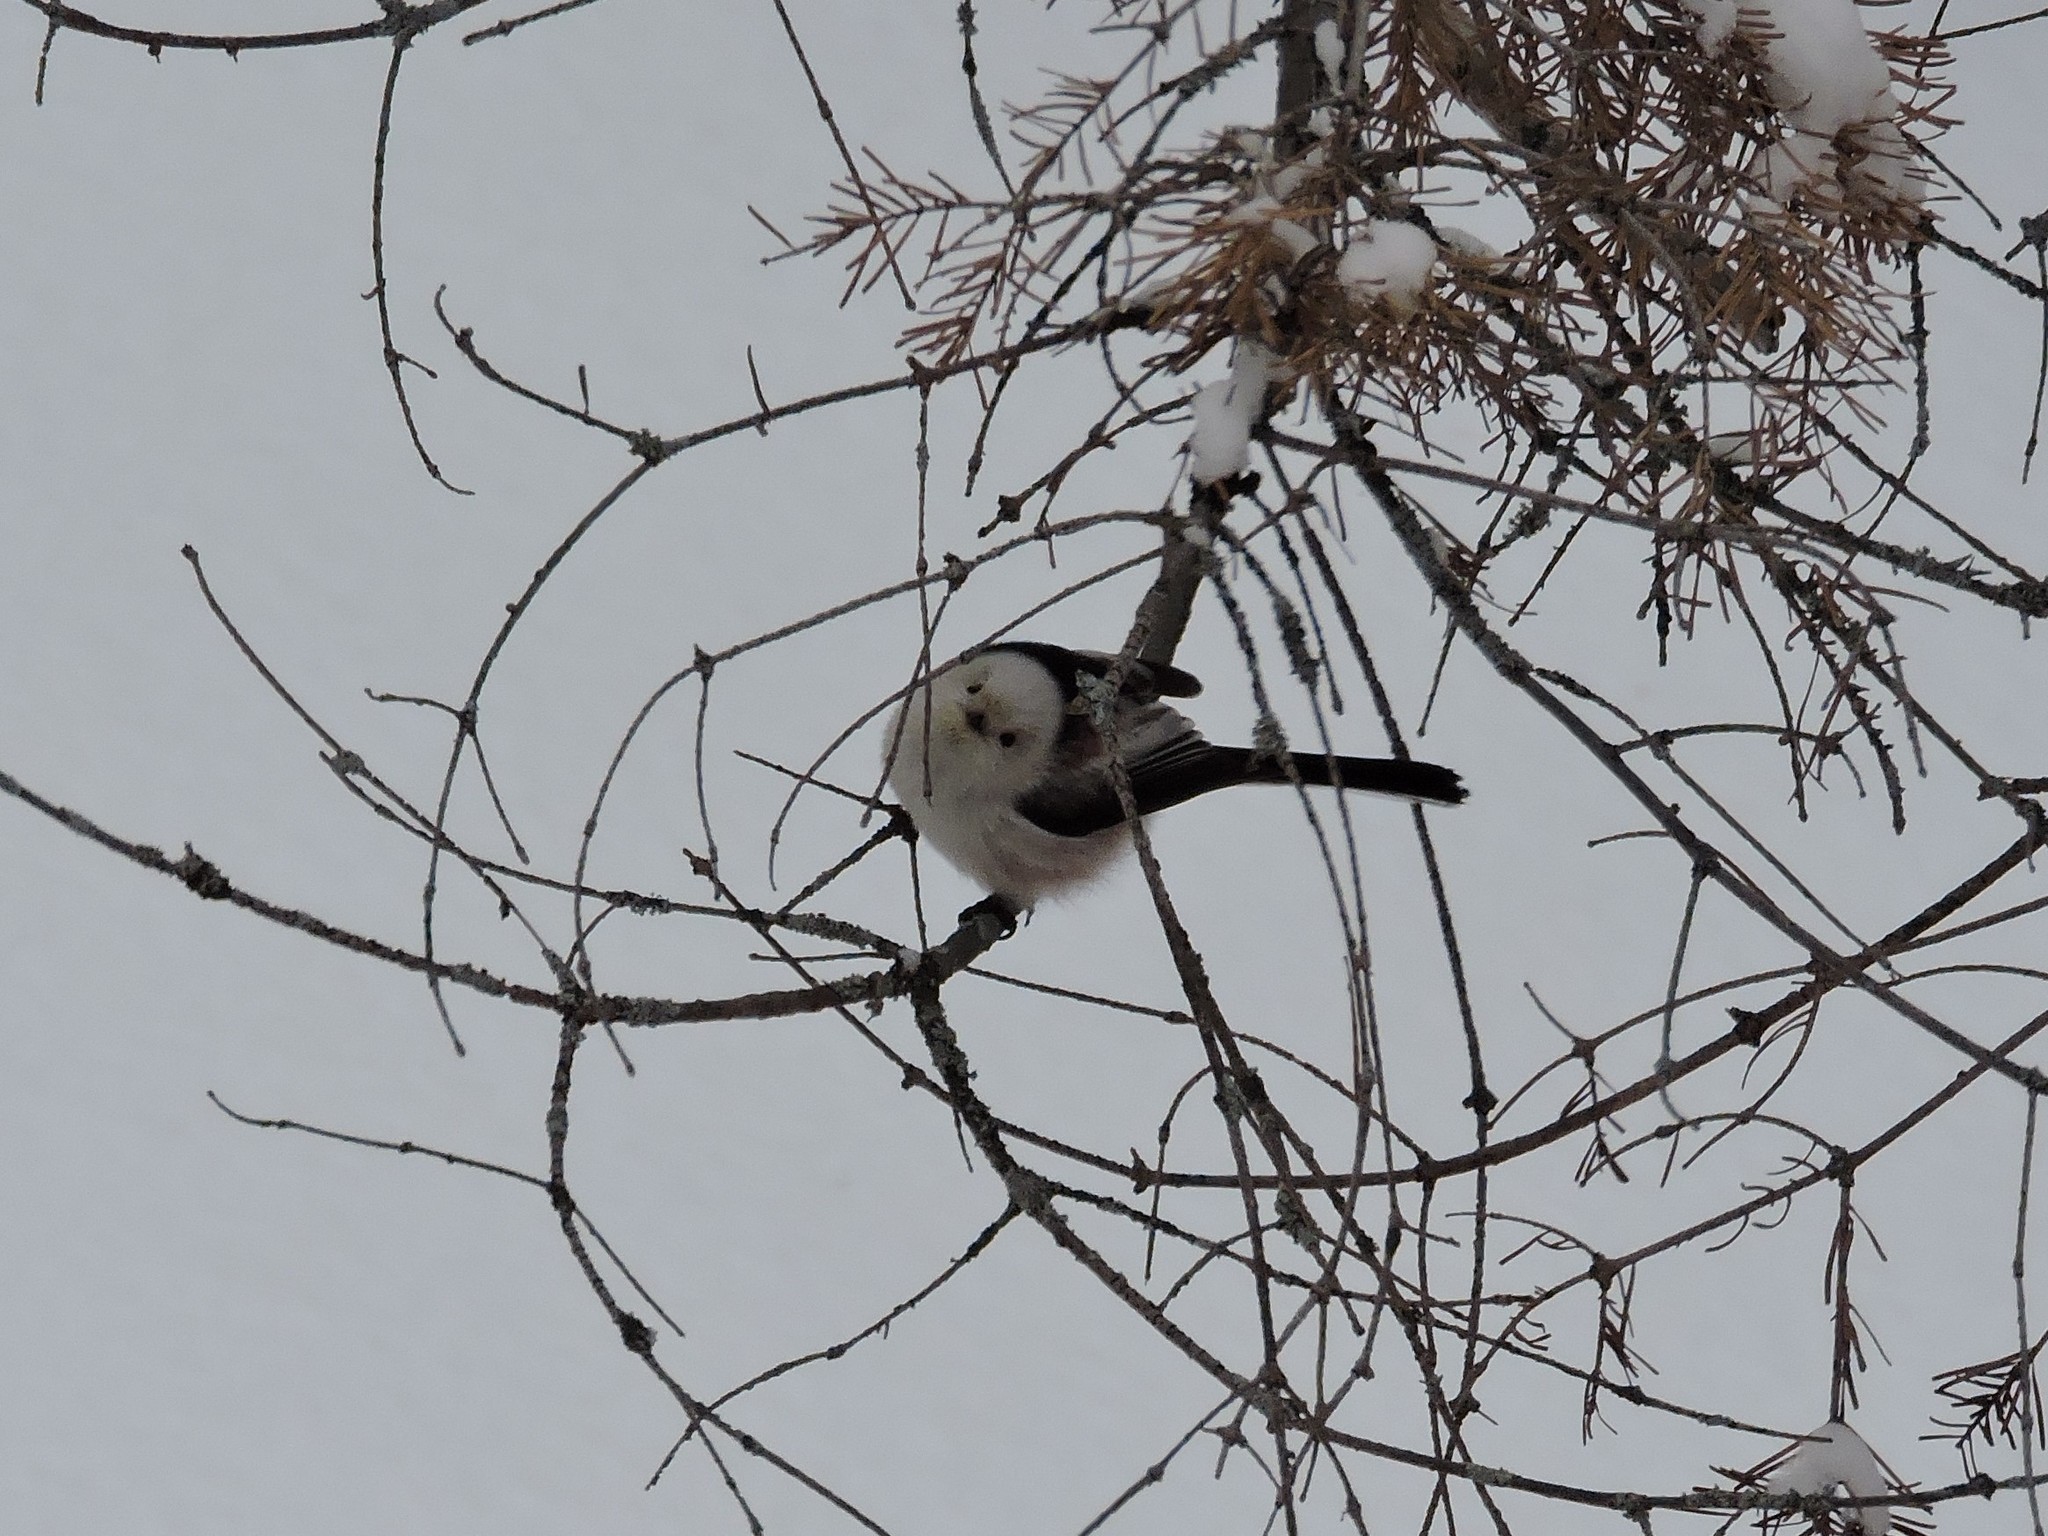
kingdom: Animalia
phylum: Chordata
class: Aves
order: Passeriformes
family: Aegithalidae
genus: Aegithalos
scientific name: Aegithalos caudatus
